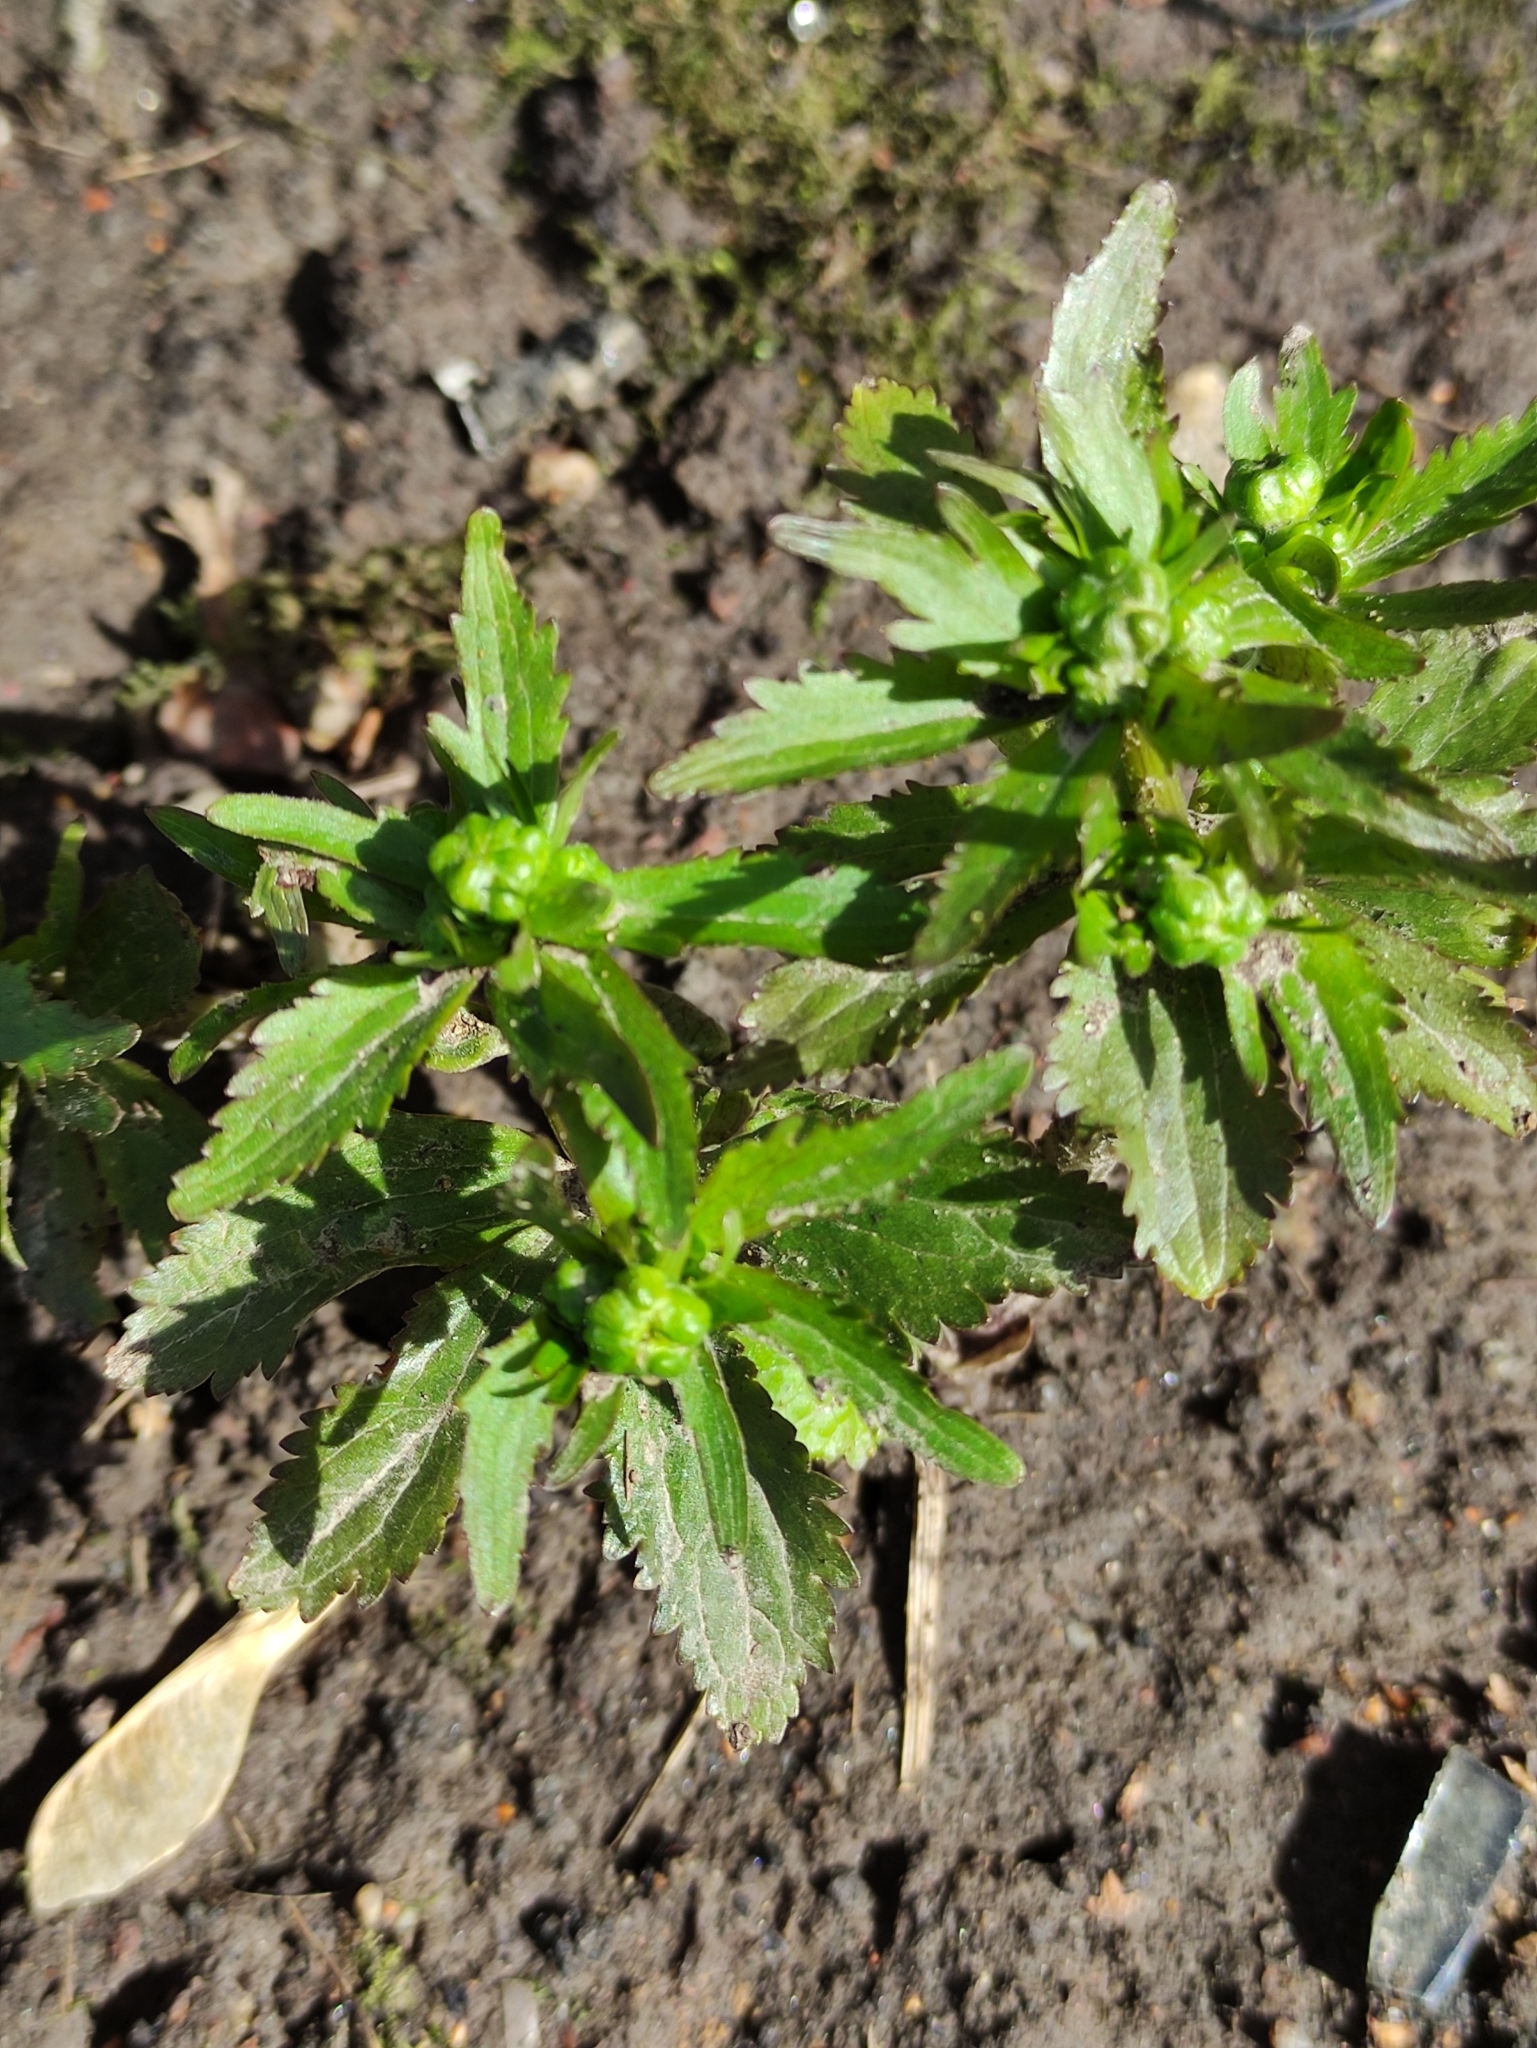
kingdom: Plantae
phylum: Tracheophyta
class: Magnoliopsida
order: Ranunculales
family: Ranunculaceae
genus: Ranunculus
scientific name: Ranunculus cassubicus
